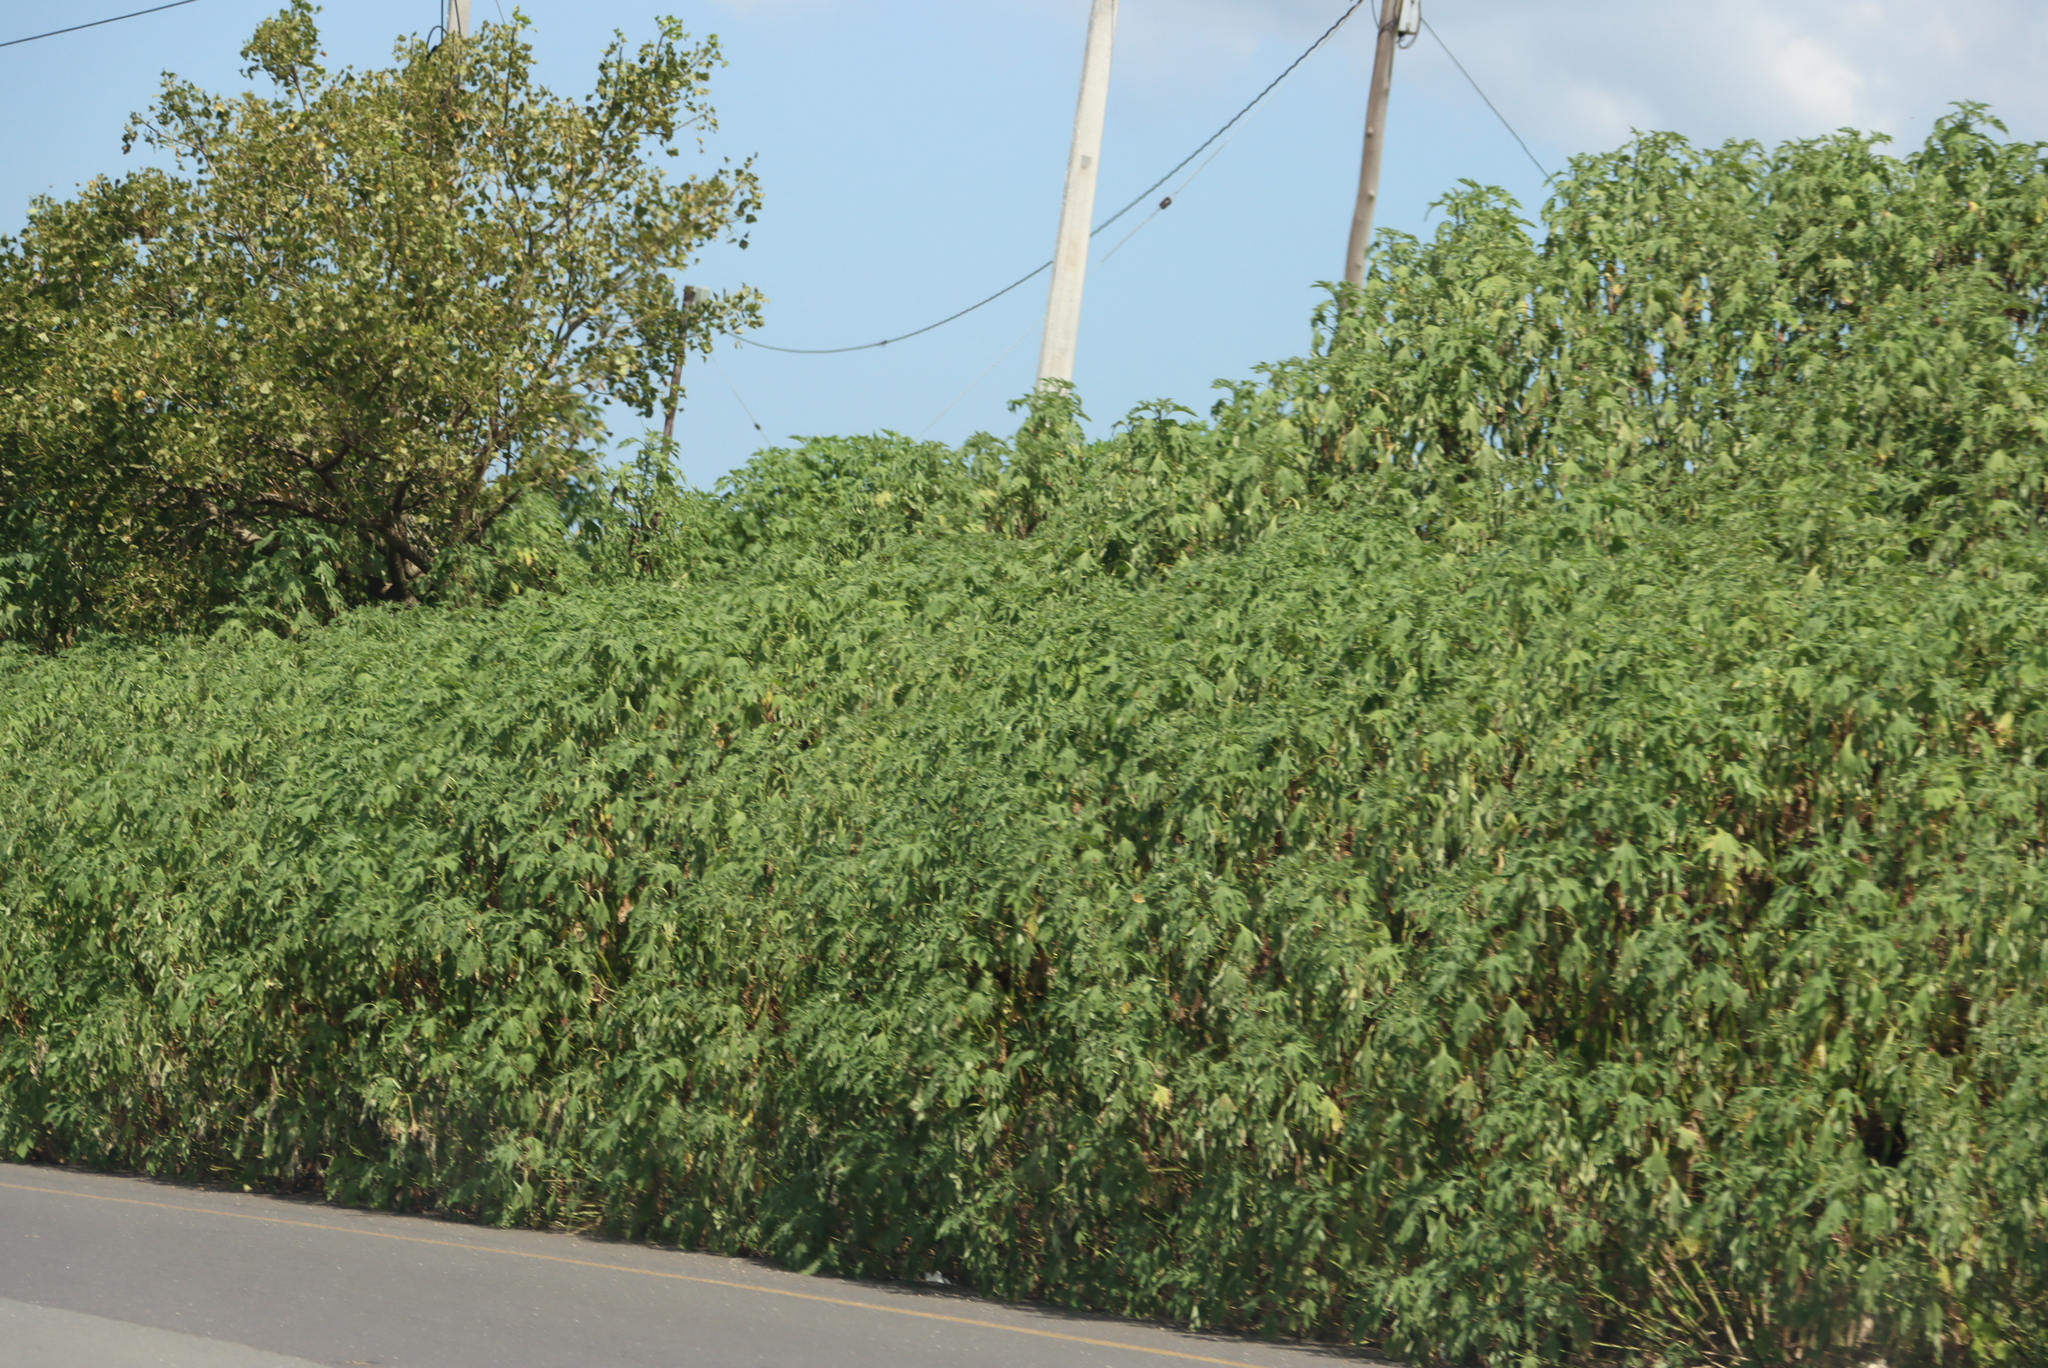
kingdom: Plantae
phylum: Tracheophyta
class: Magnoliopsida
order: Asterales
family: Asteraceae
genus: Tithonia
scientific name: Tithonia diversifolia
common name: Tree marigold
